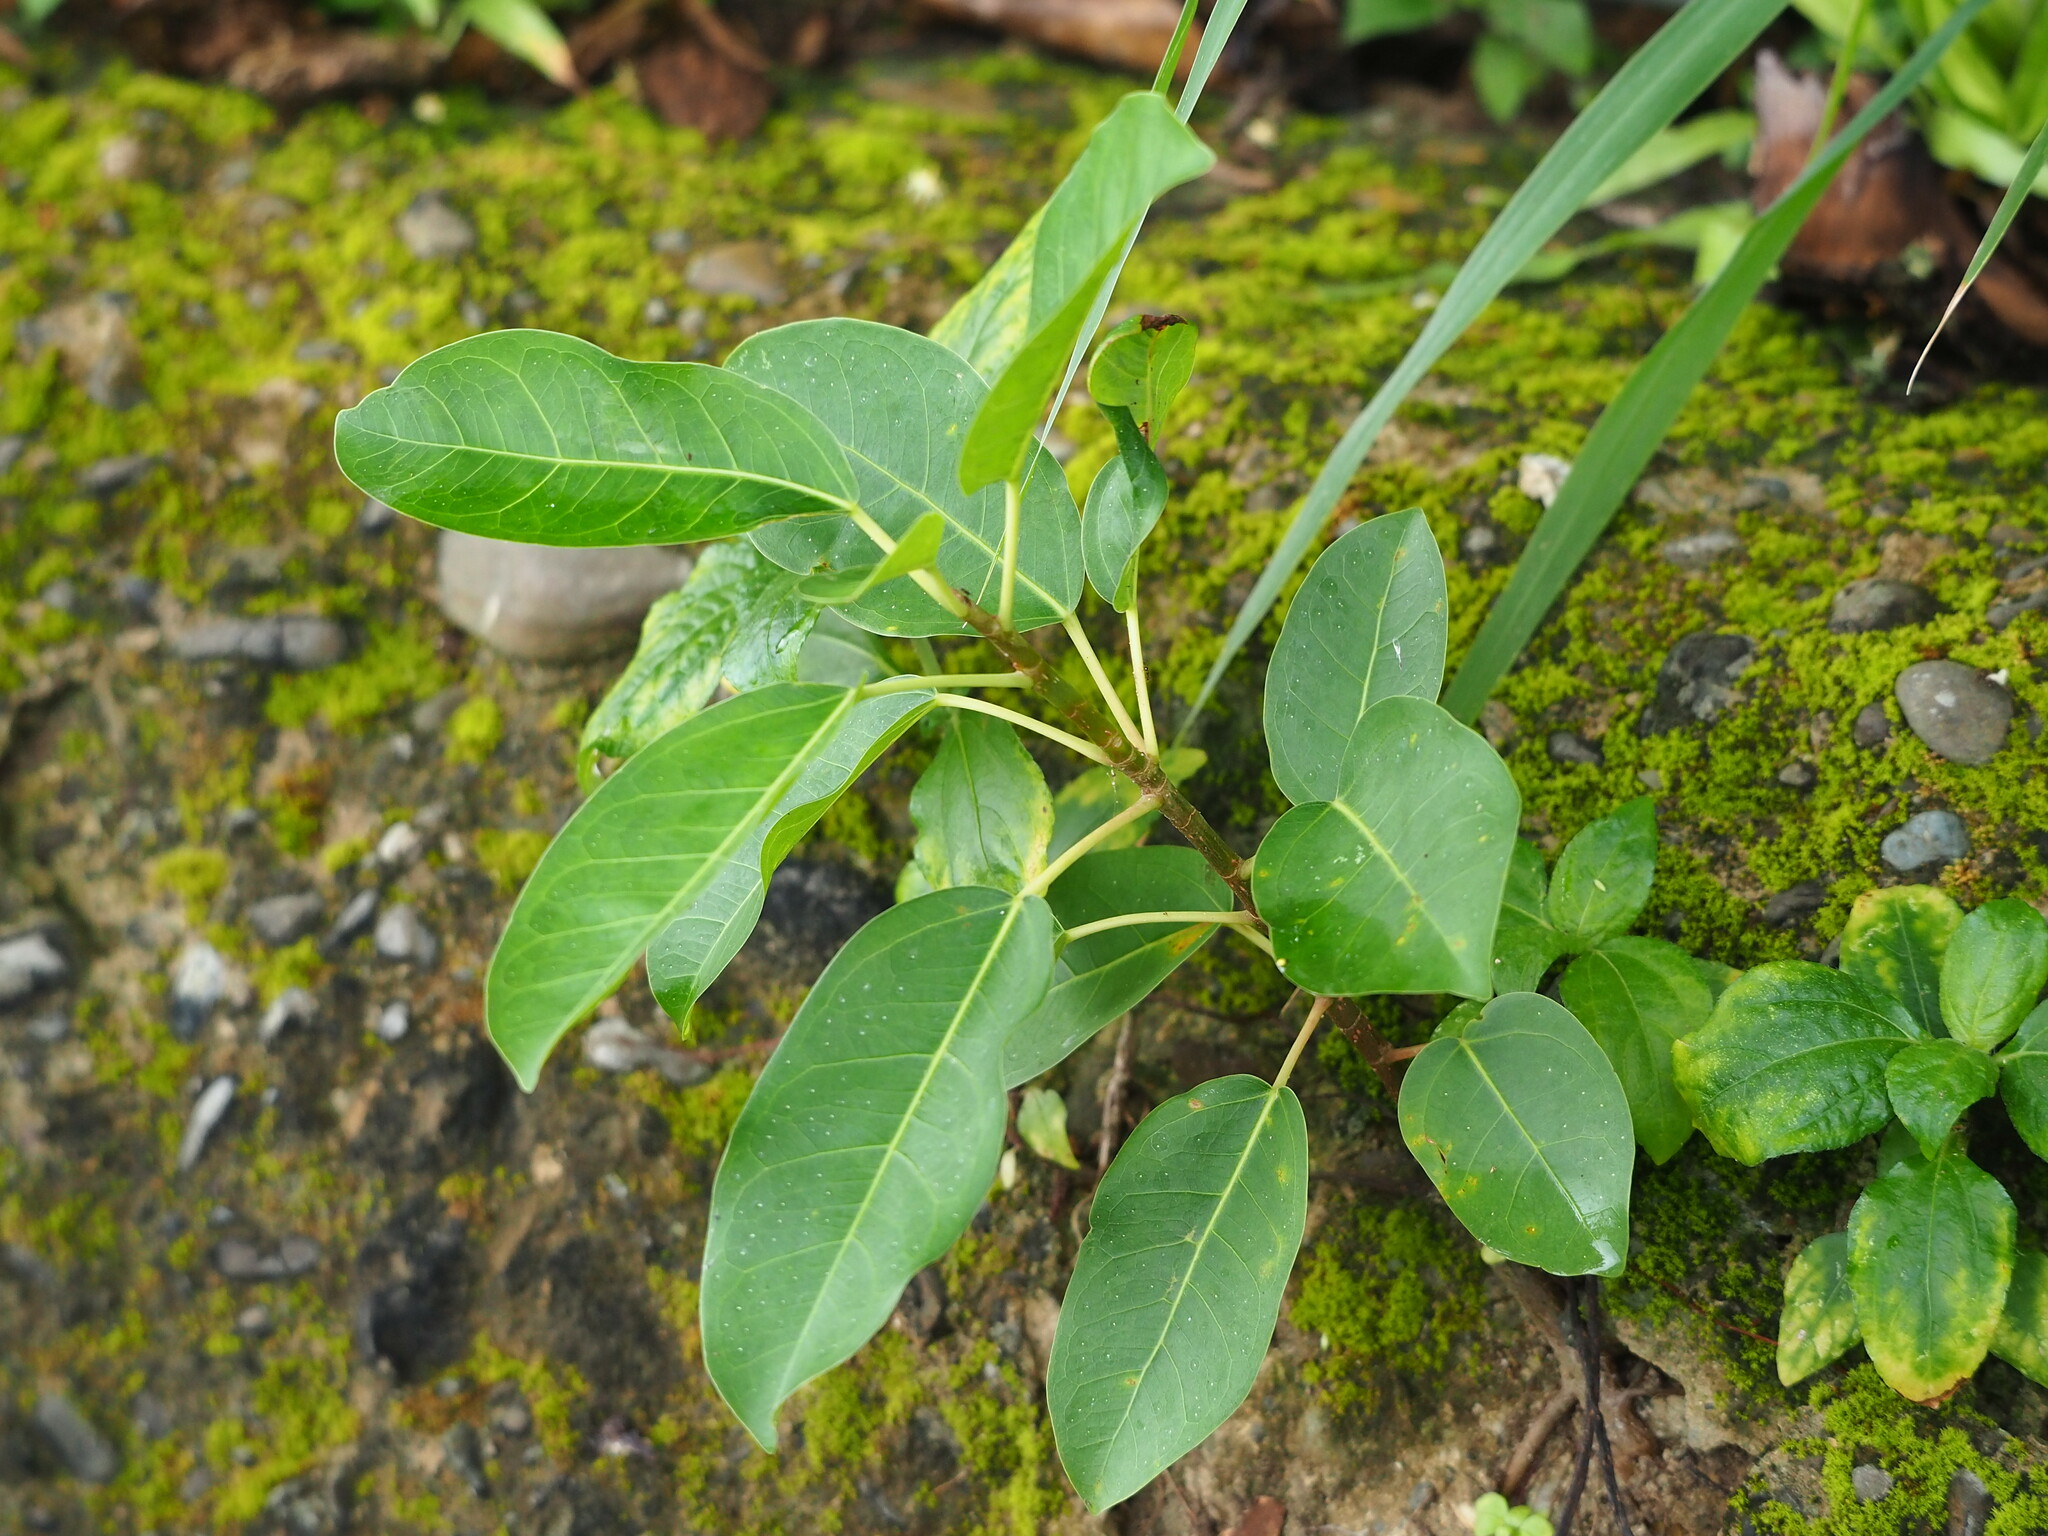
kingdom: Plantae
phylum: Tracheophyta
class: Magnoliopsida
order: Rosales
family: Moraceae
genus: Ficus
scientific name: Ficus subpisocarpa
